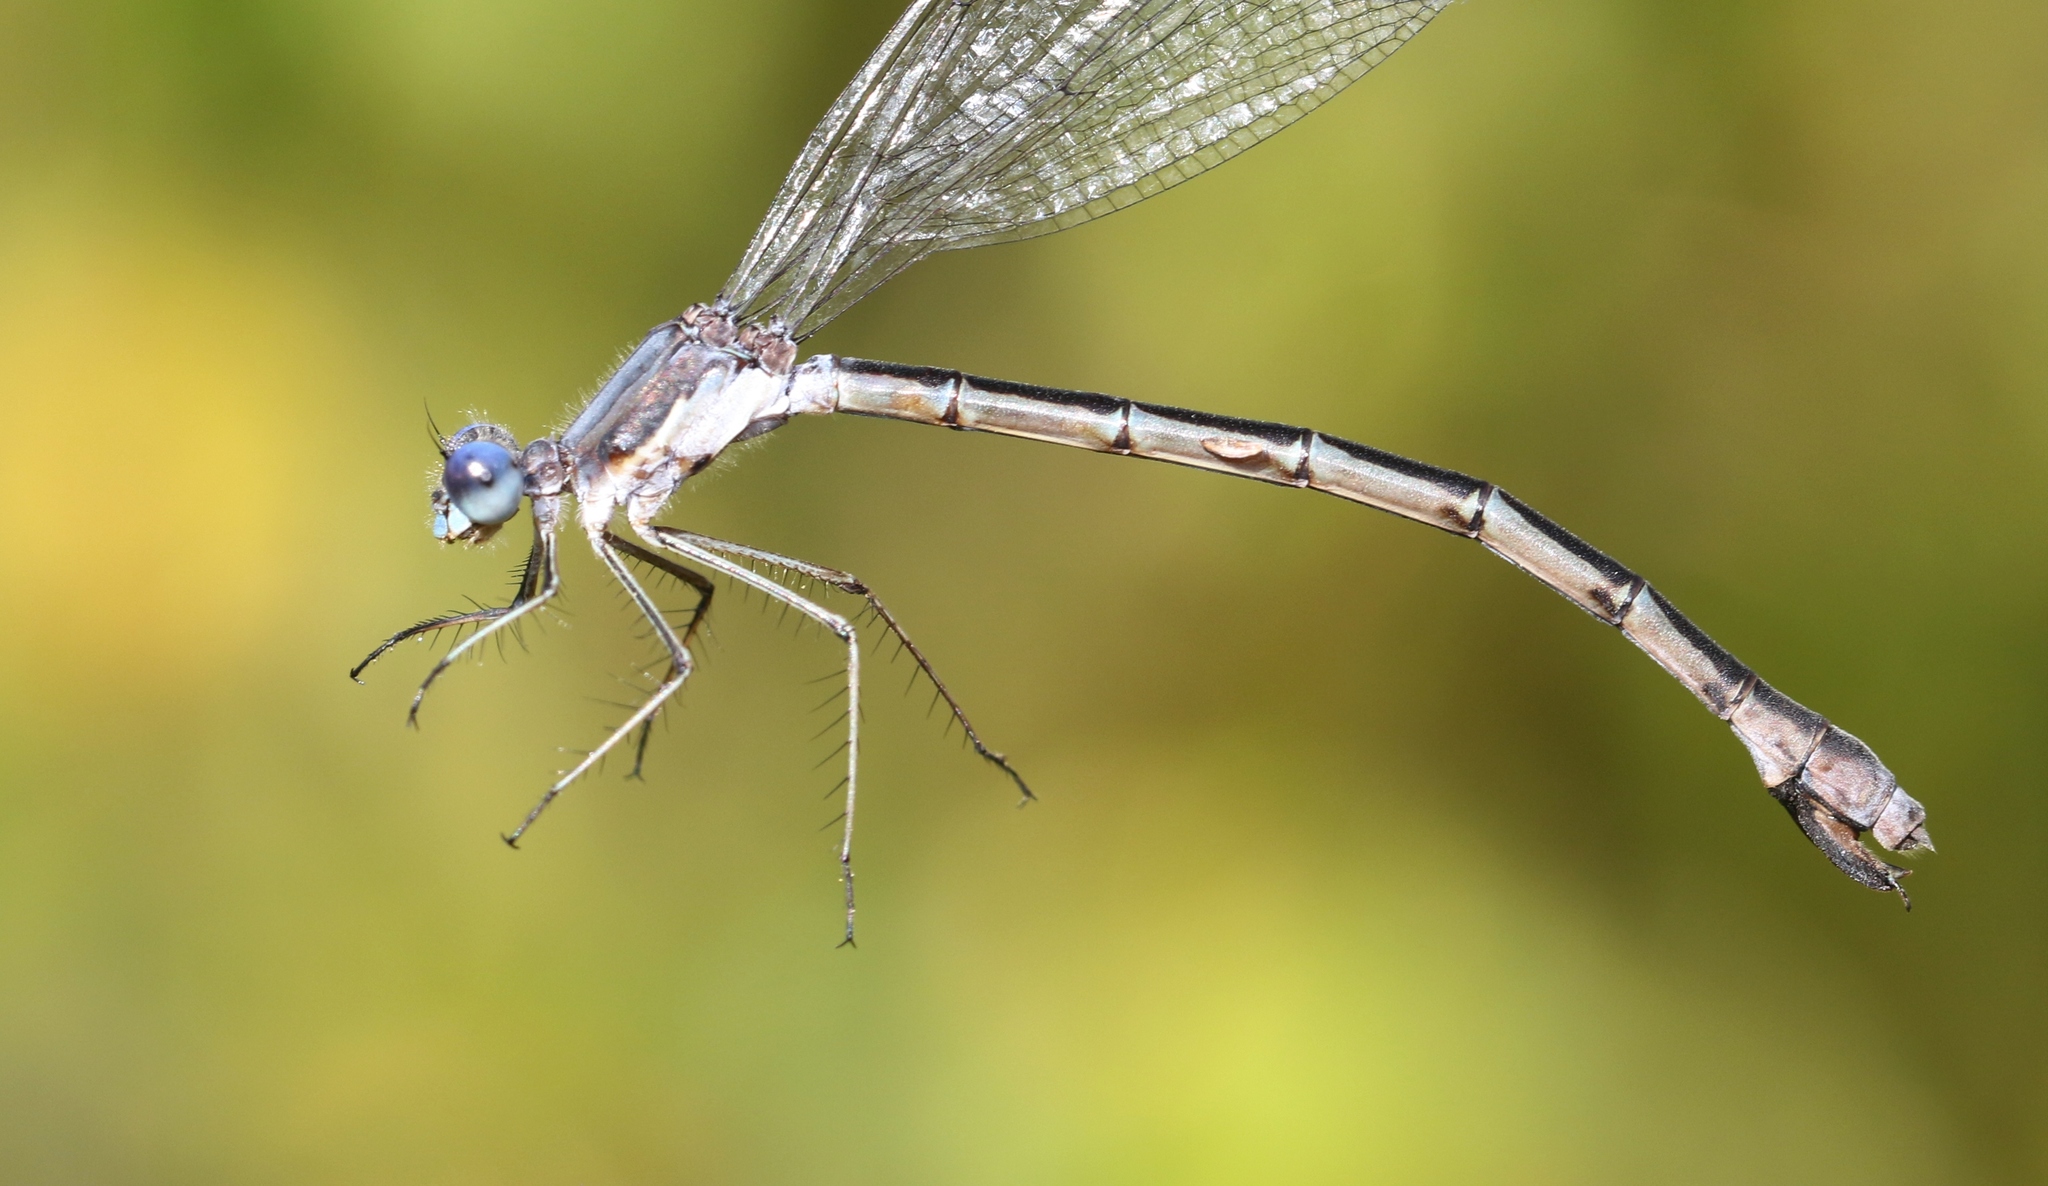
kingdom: Animalia
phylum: Arthropoda
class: Insecta
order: Odonata
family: Lestidae
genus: Lestes
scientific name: Lestes forcipatus
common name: Sweetflag spreadwing
